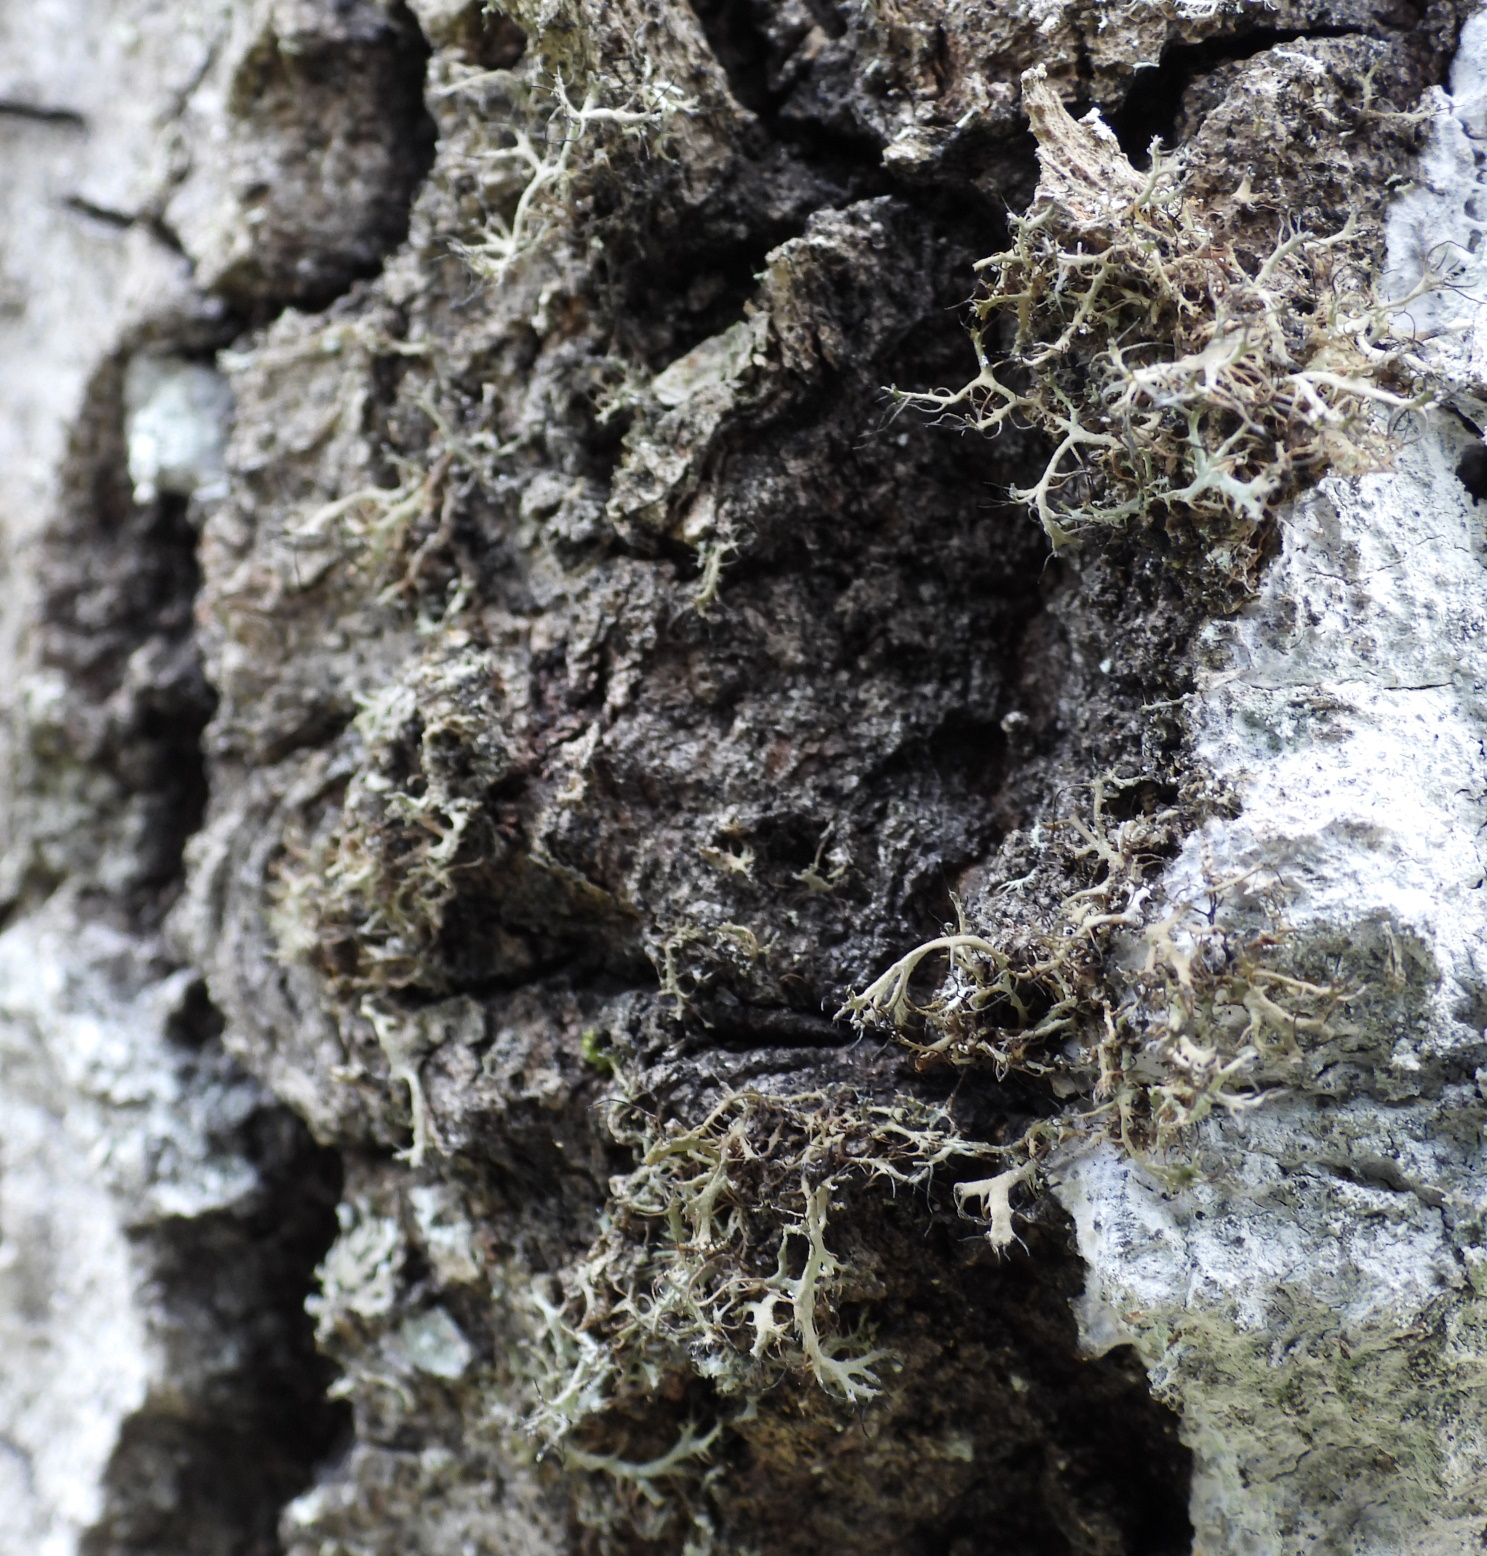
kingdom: Fungi
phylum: Ascomycota
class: Lecanoromycetes
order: Caliciales
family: Physciaceae
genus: Anaptychia
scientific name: Anaptychia ciliaris
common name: Great ciliated lichen
